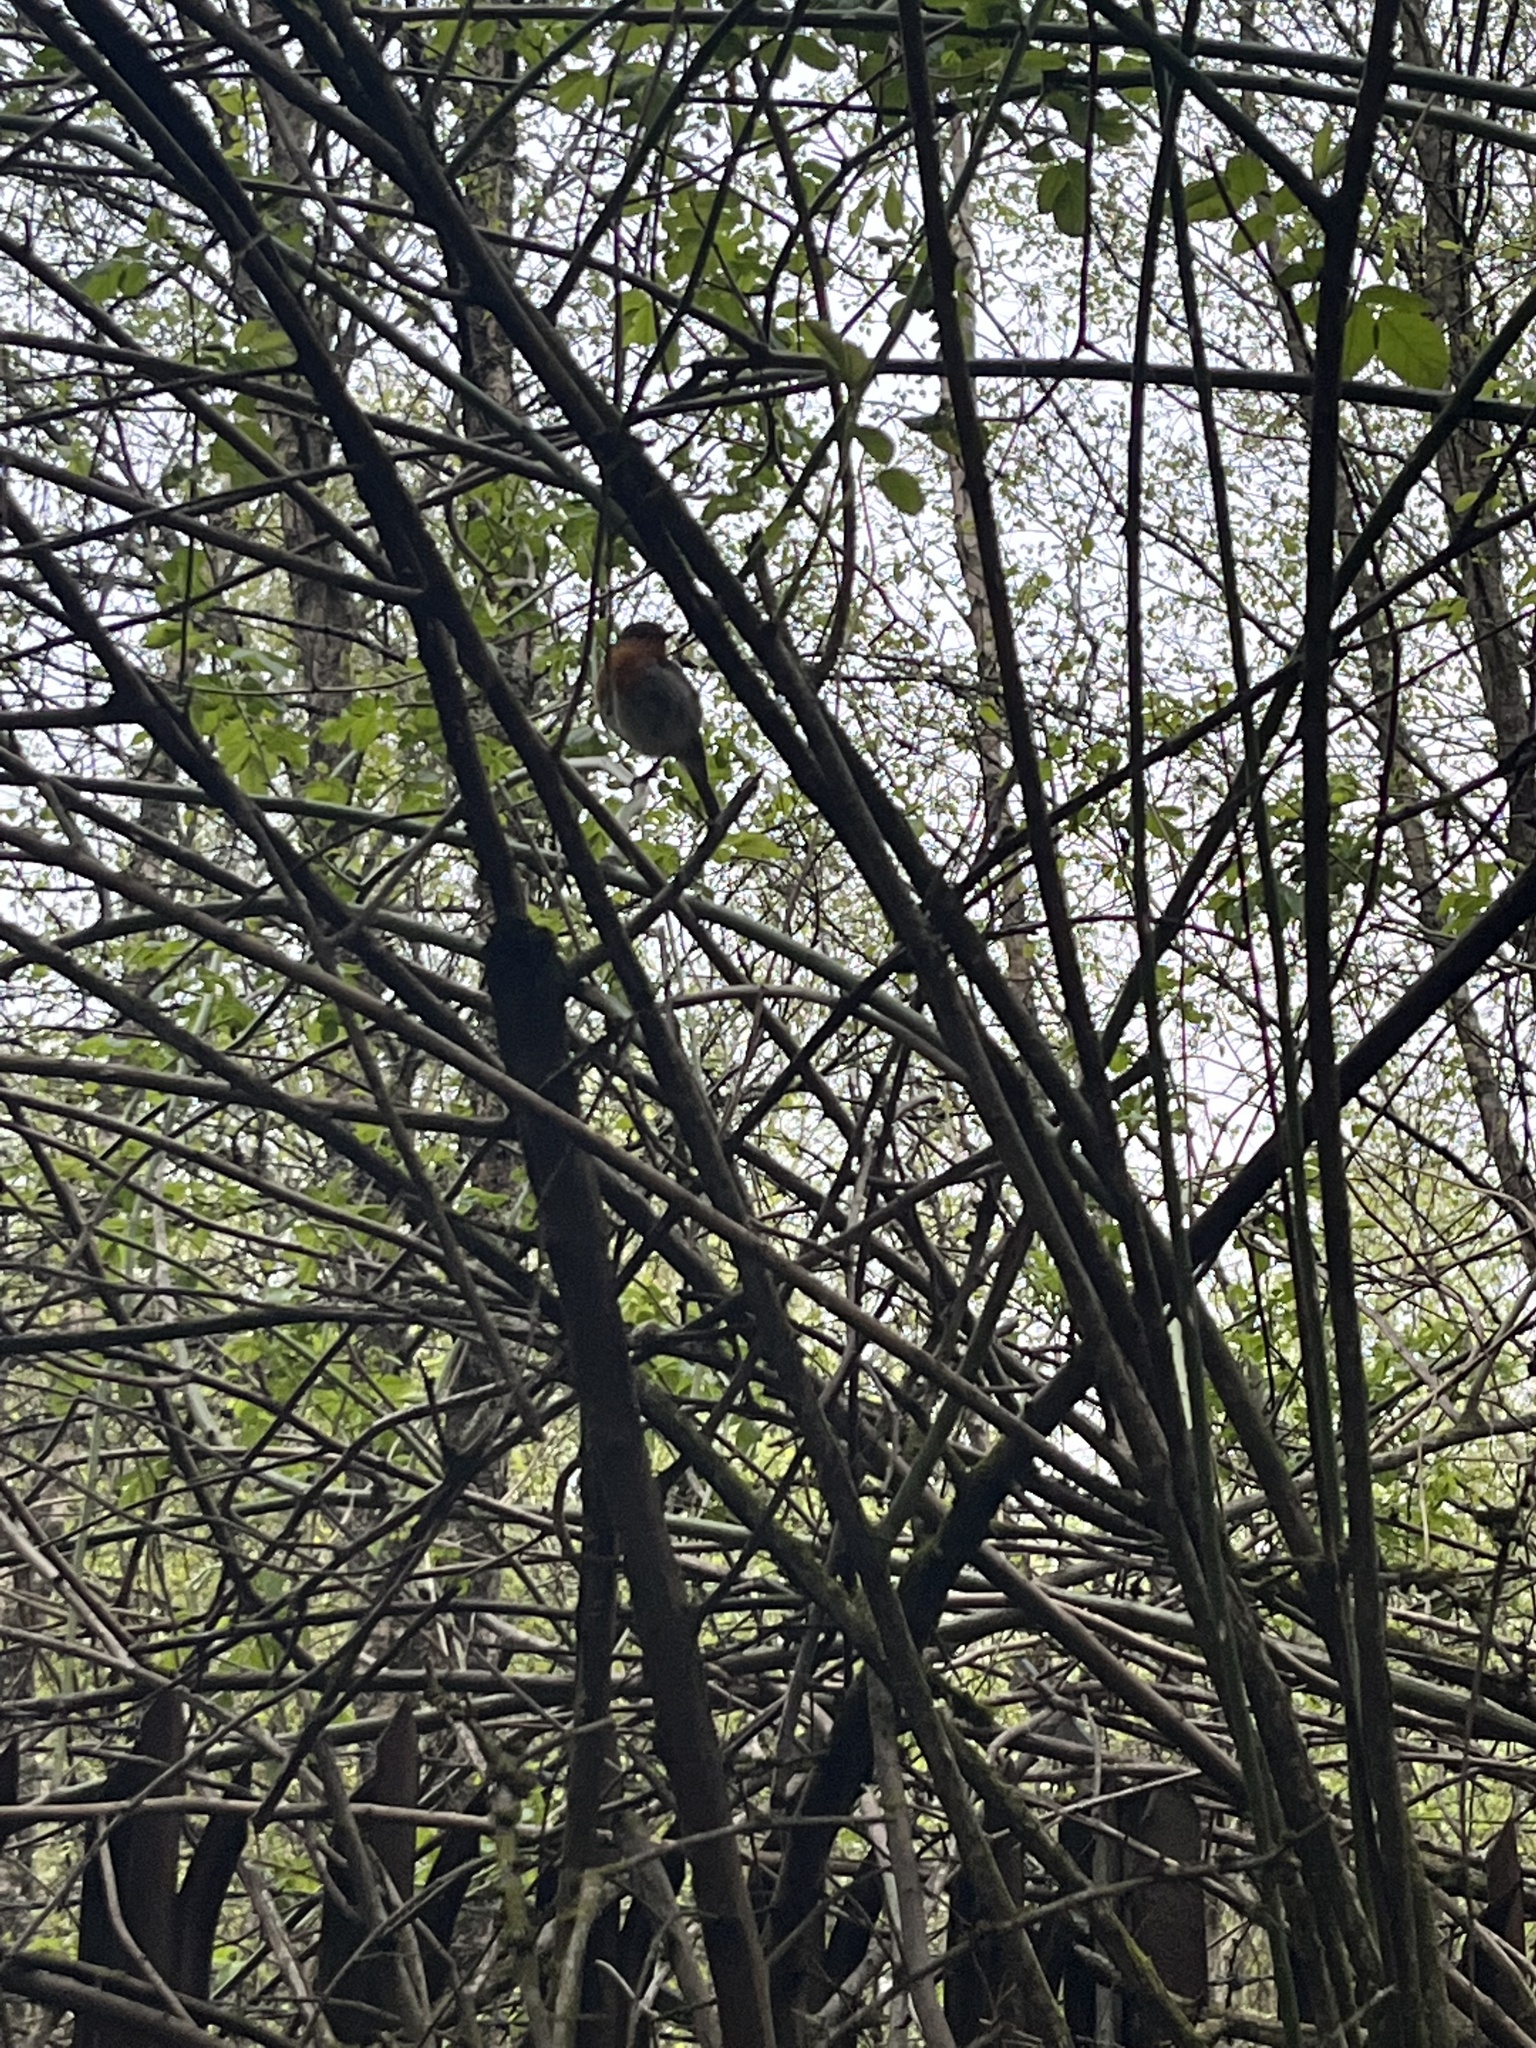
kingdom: Animalia
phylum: Chordata
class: Aves
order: Passeriformes
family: Muscicapidae
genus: Erithacus
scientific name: Erithacus rubecula
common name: European robin
